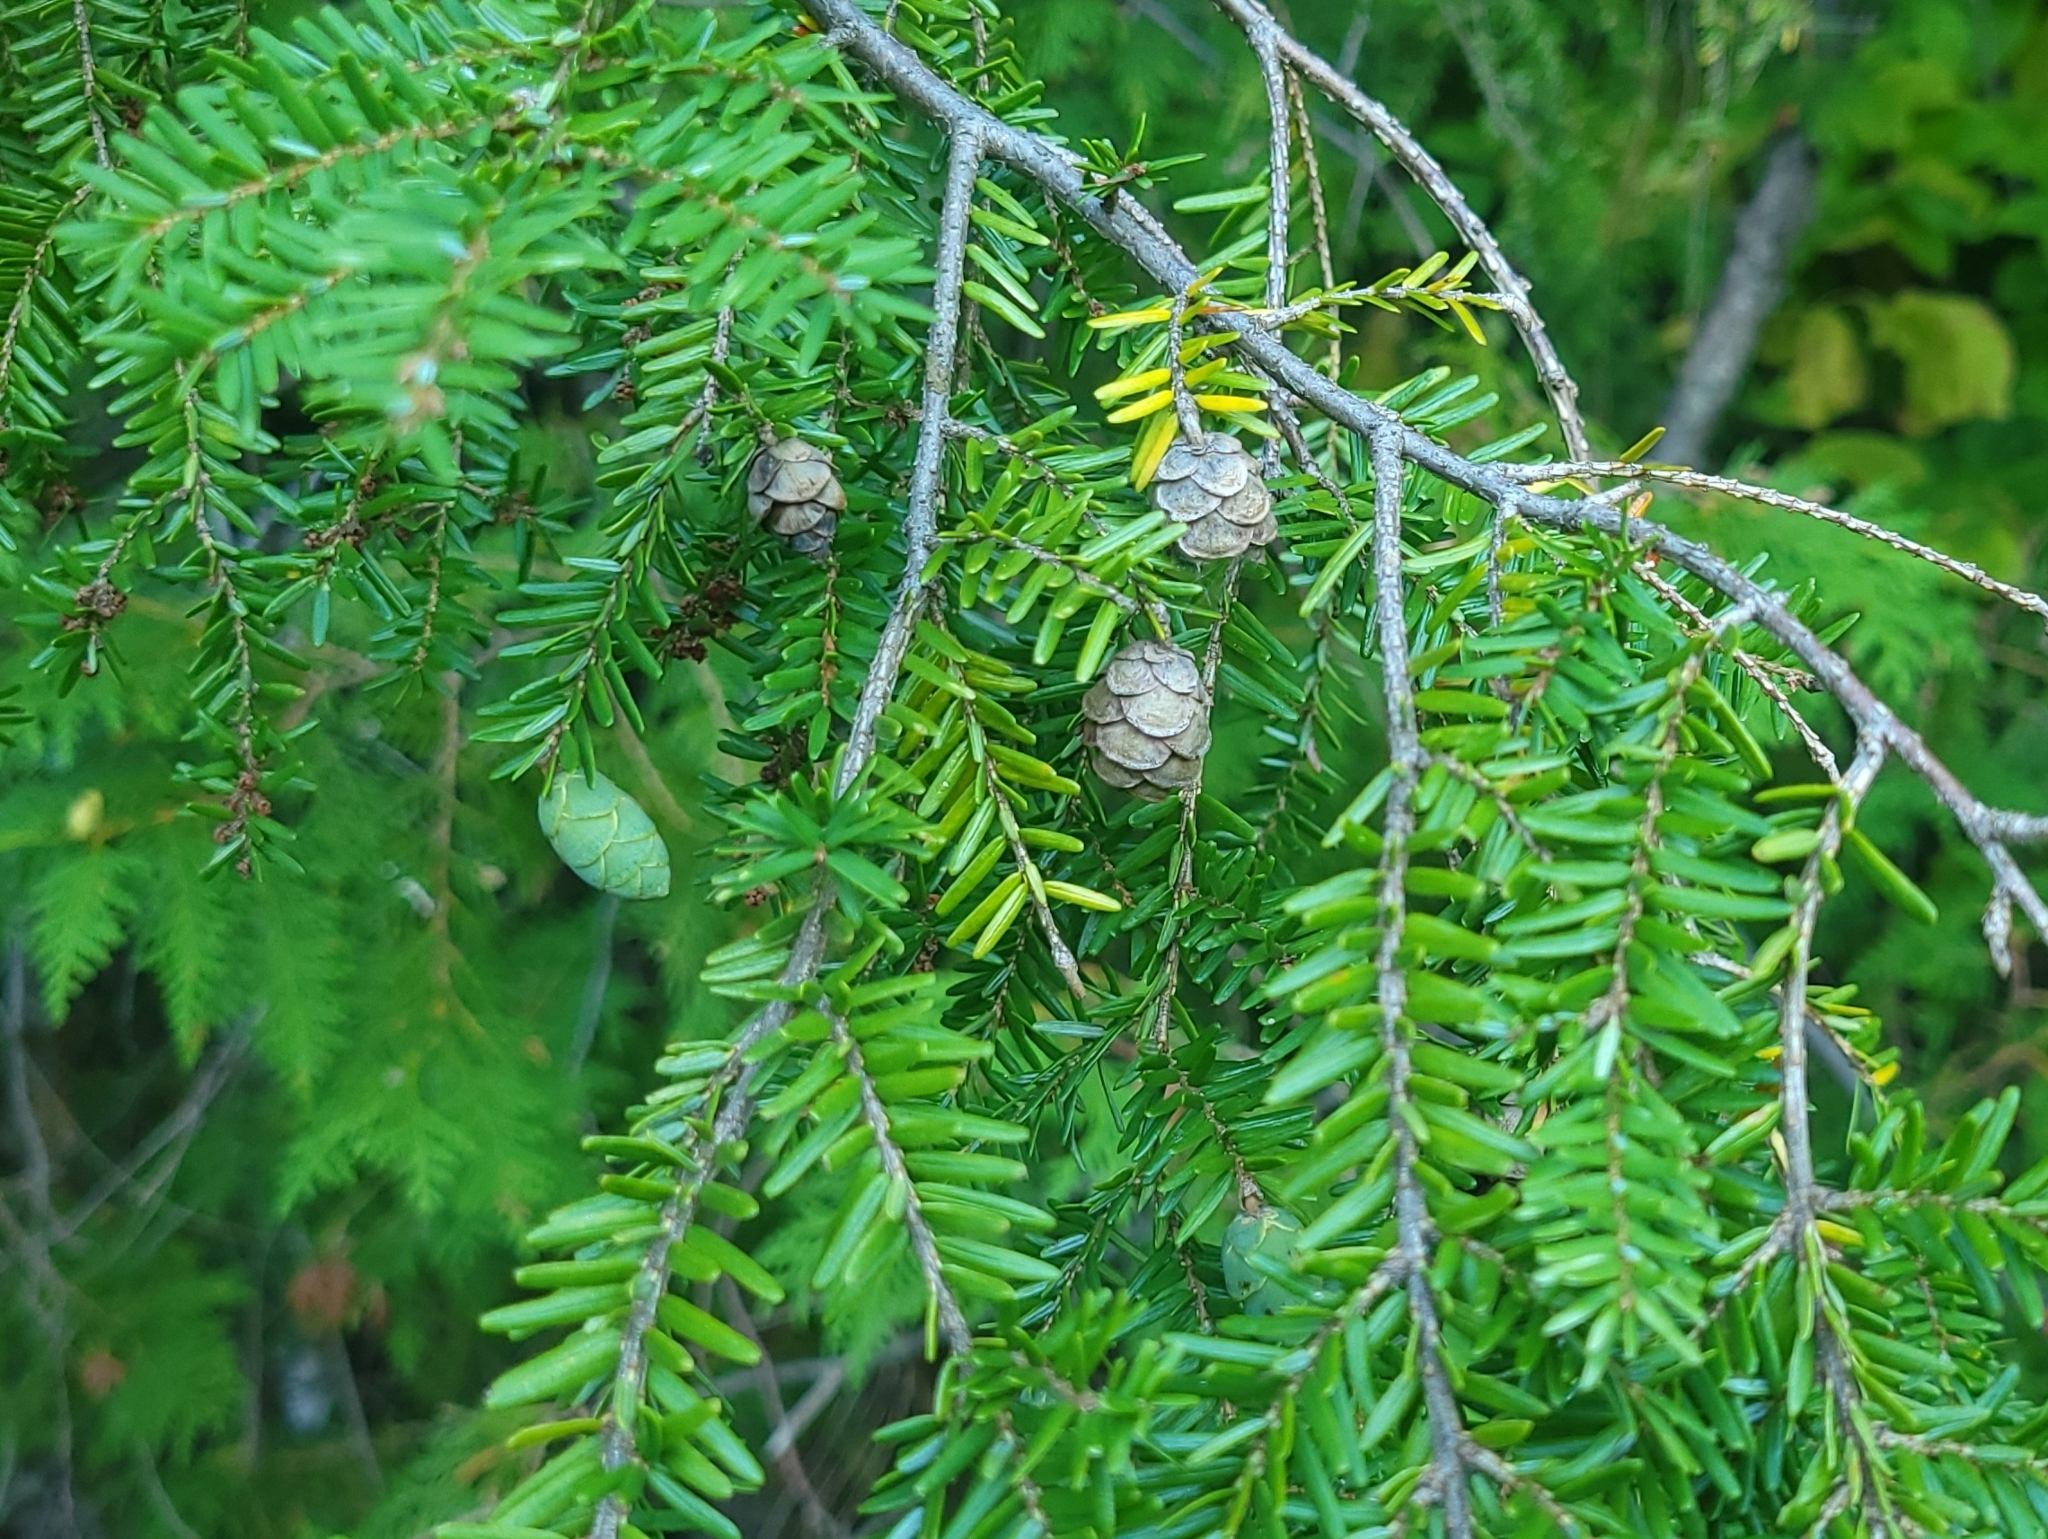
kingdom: Plantae
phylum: Tracheophyta
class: Pinopsida
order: Pinales
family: Pinaceae
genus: Tsuga
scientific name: Tsuga canadensis
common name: Eastern hemlock
